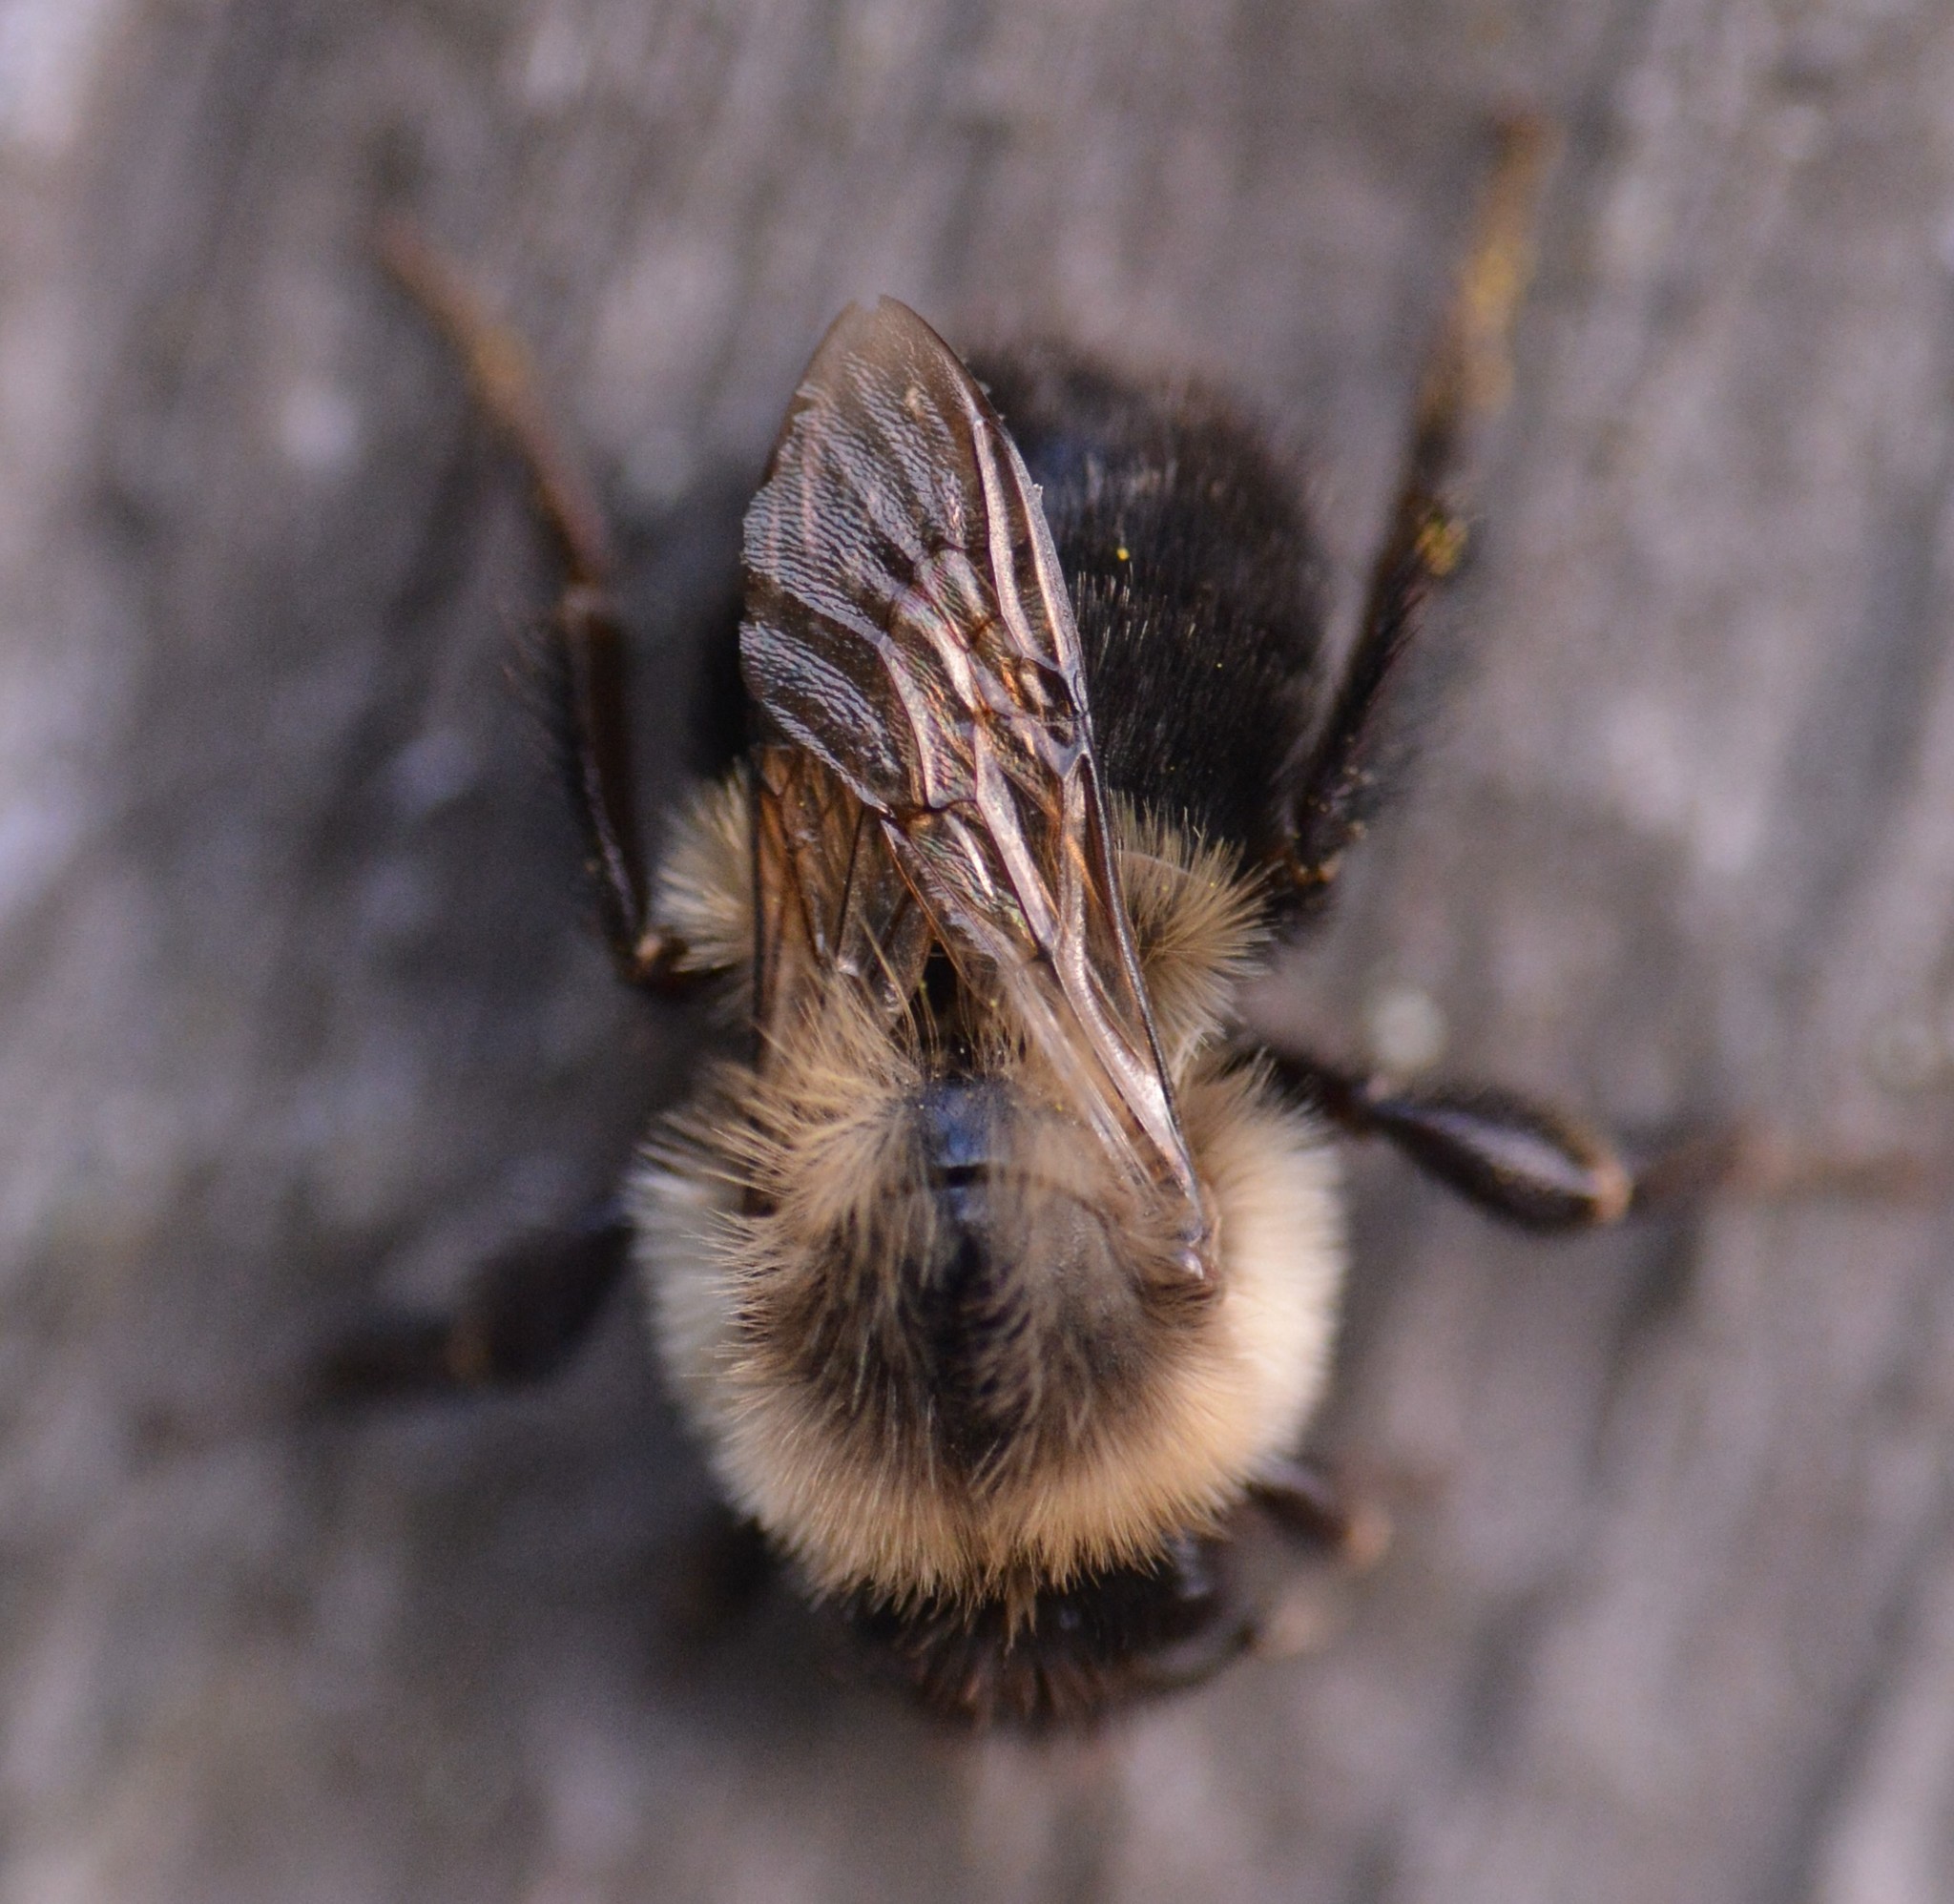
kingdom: Animalia
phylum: Arthropoda
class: Insecta
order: Hymenoptera
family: Apidae
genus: Bombus
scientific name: Bombus impatiens
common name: Common eastern bumble bee
